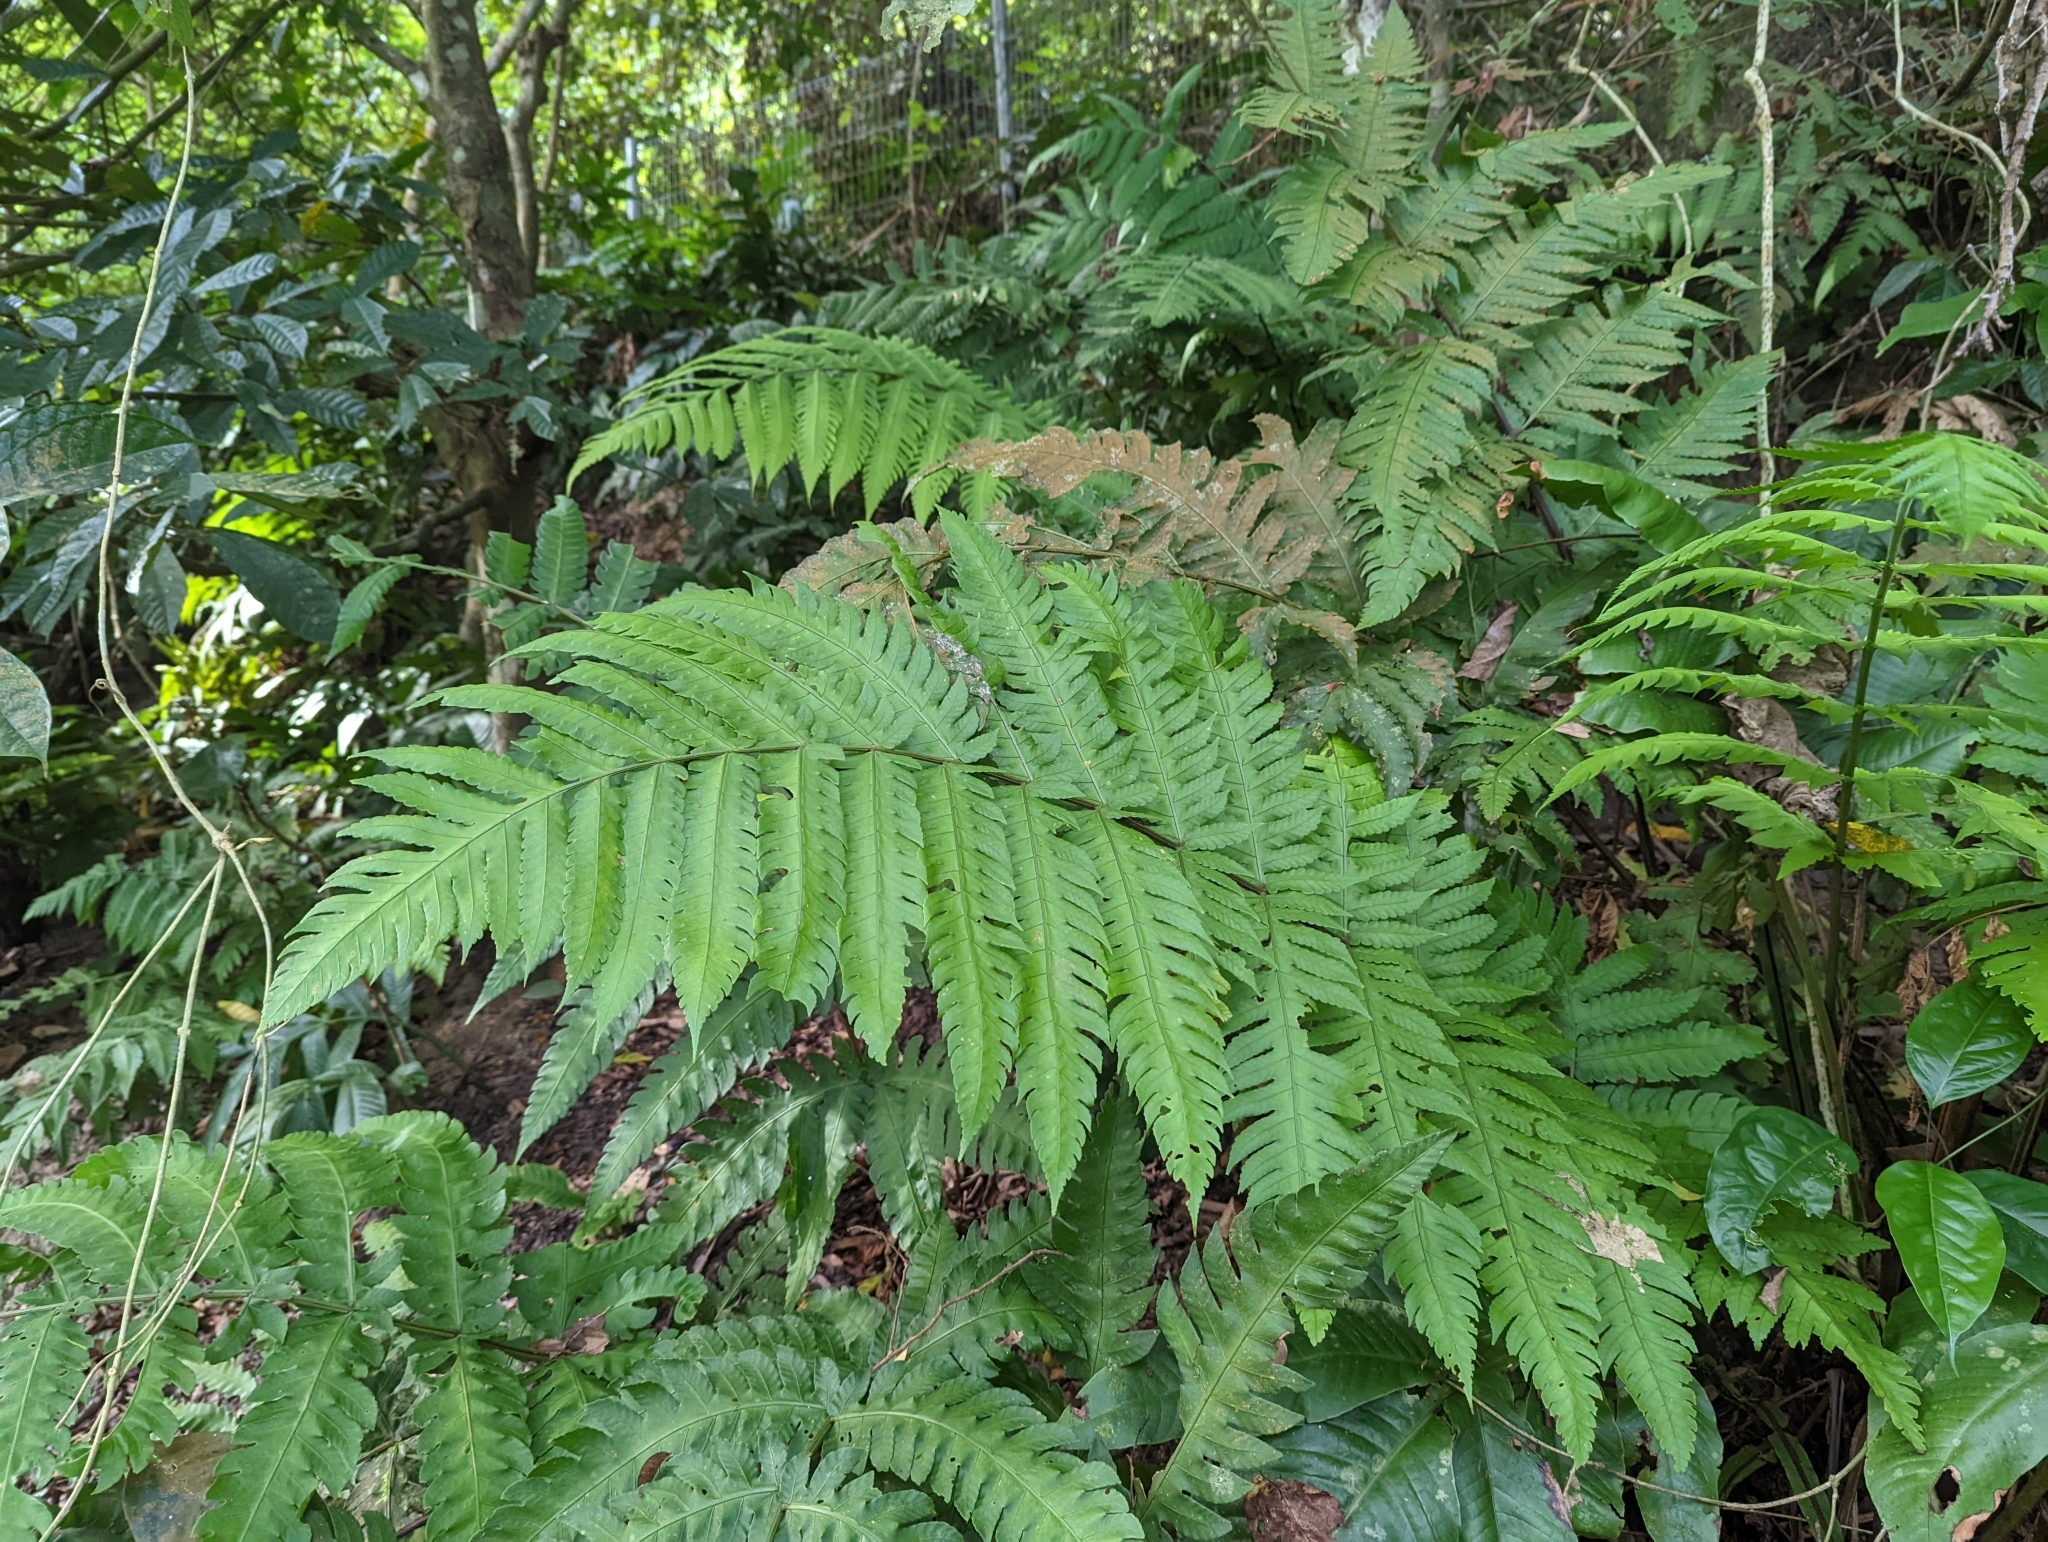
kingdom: Plantae
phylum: Tracheophyta
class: Polypodiopsida
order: Polypodiales
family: Dryopteridaceae
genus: Pleocnemia
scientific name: Pleocnemia irregularis
